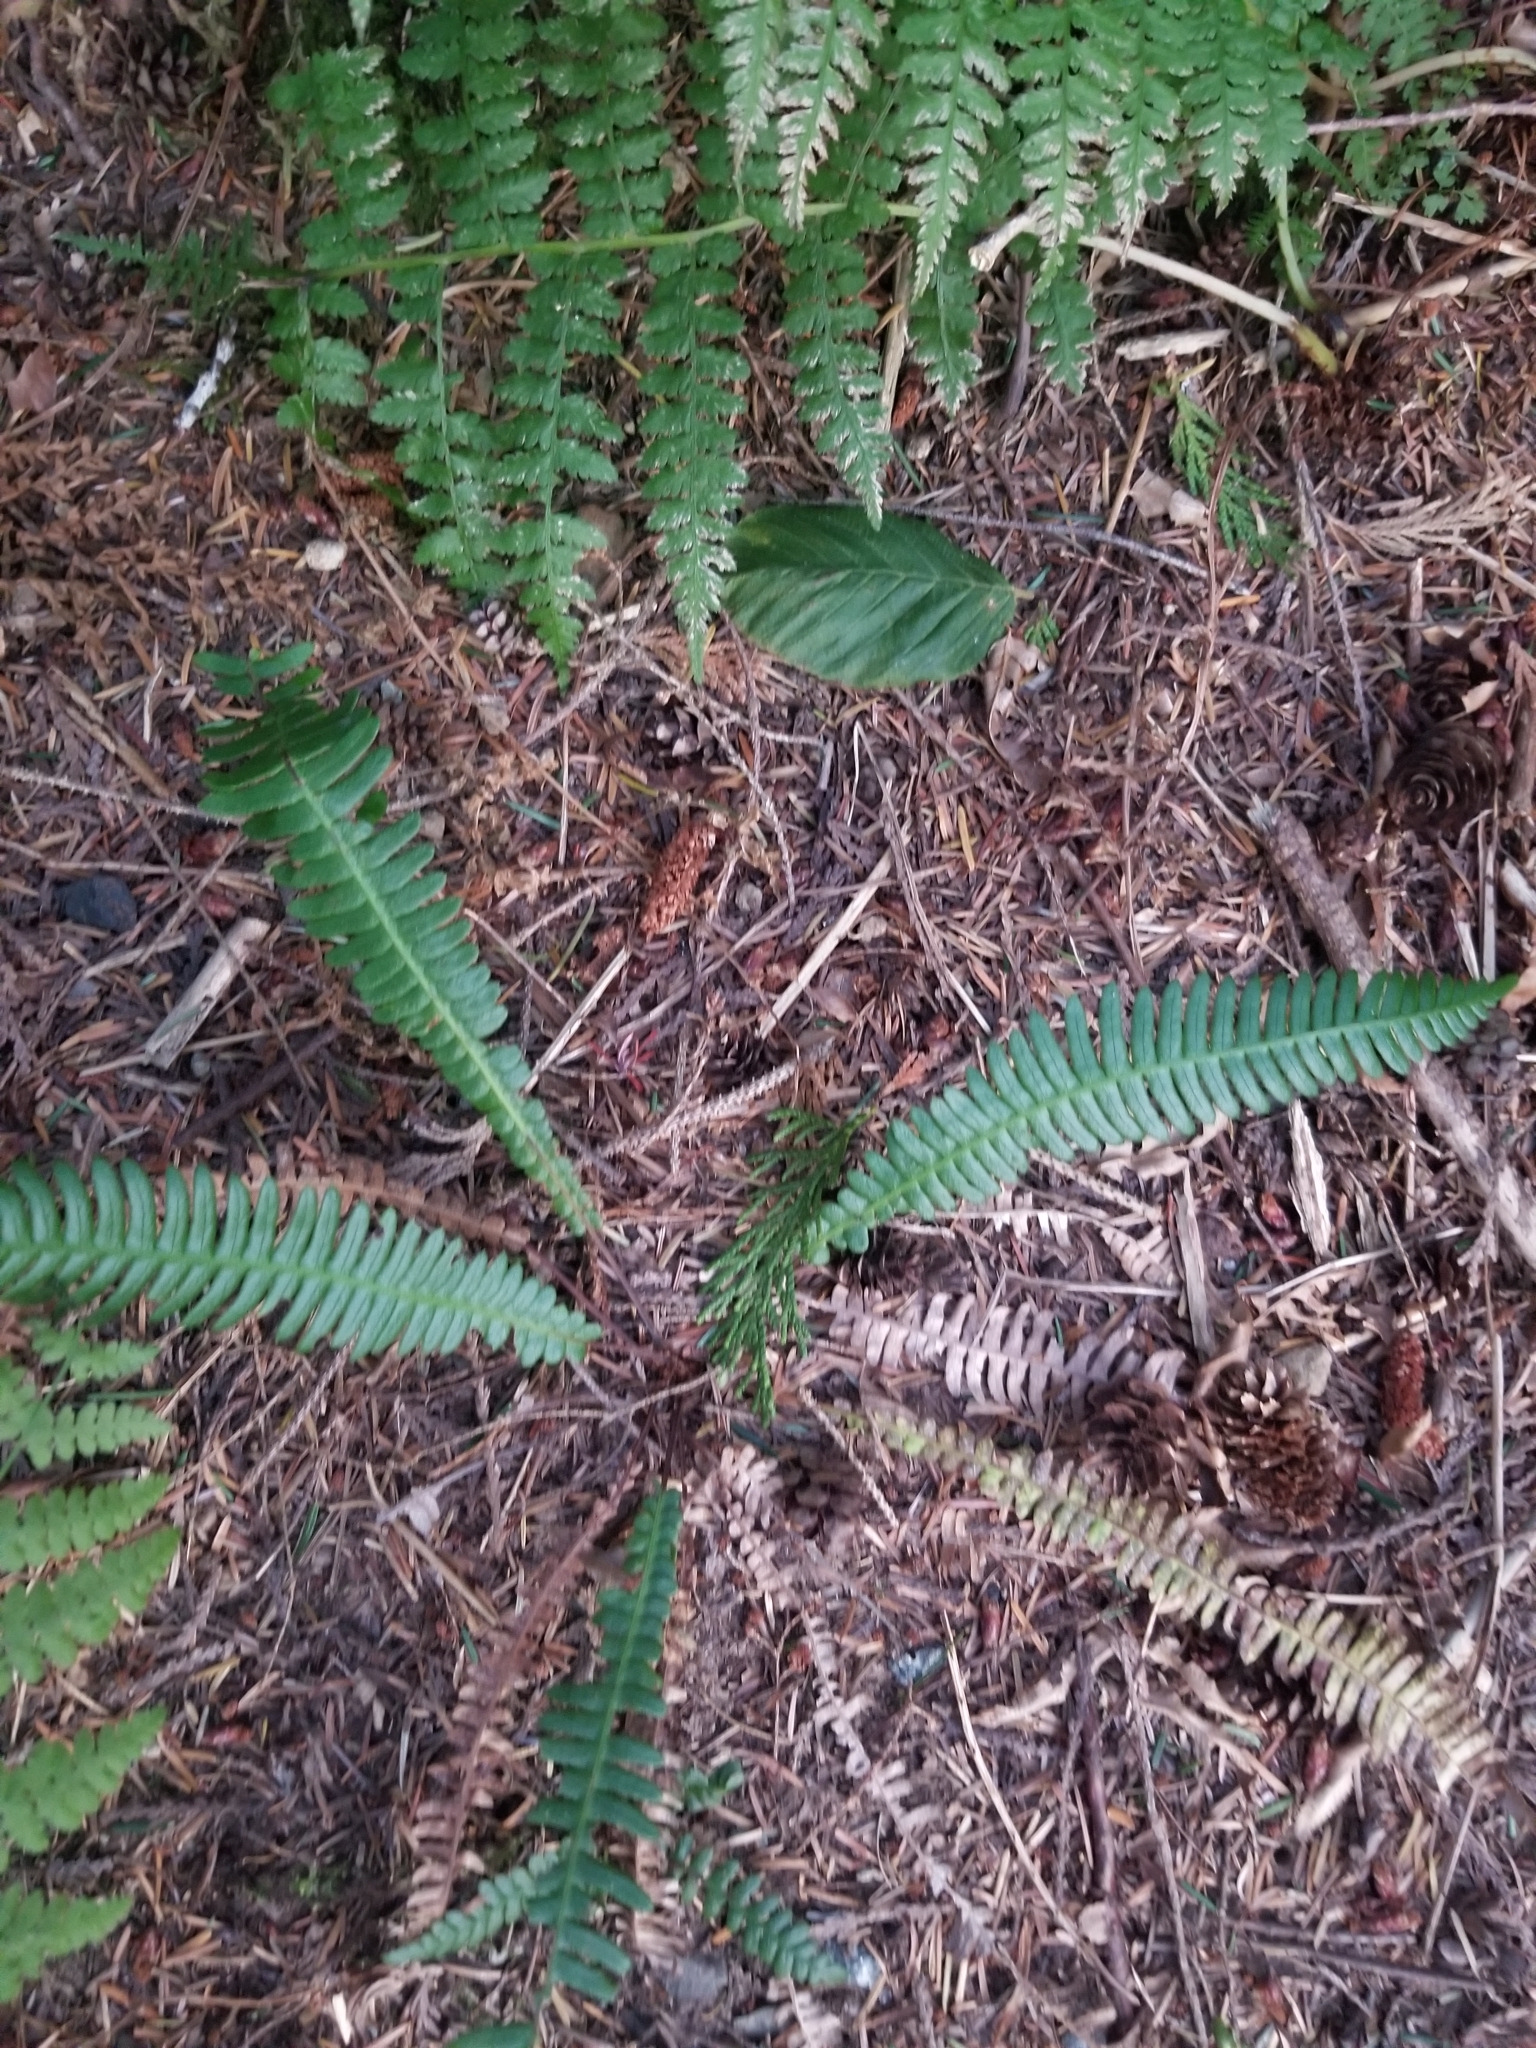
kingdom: Plantae
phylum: Tracheophyta
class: Polypodiopsida
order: Polypodiales
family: Blechnaceae
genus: Struthiopteris
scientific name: Struthiopteris spicant
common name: Deer fern
